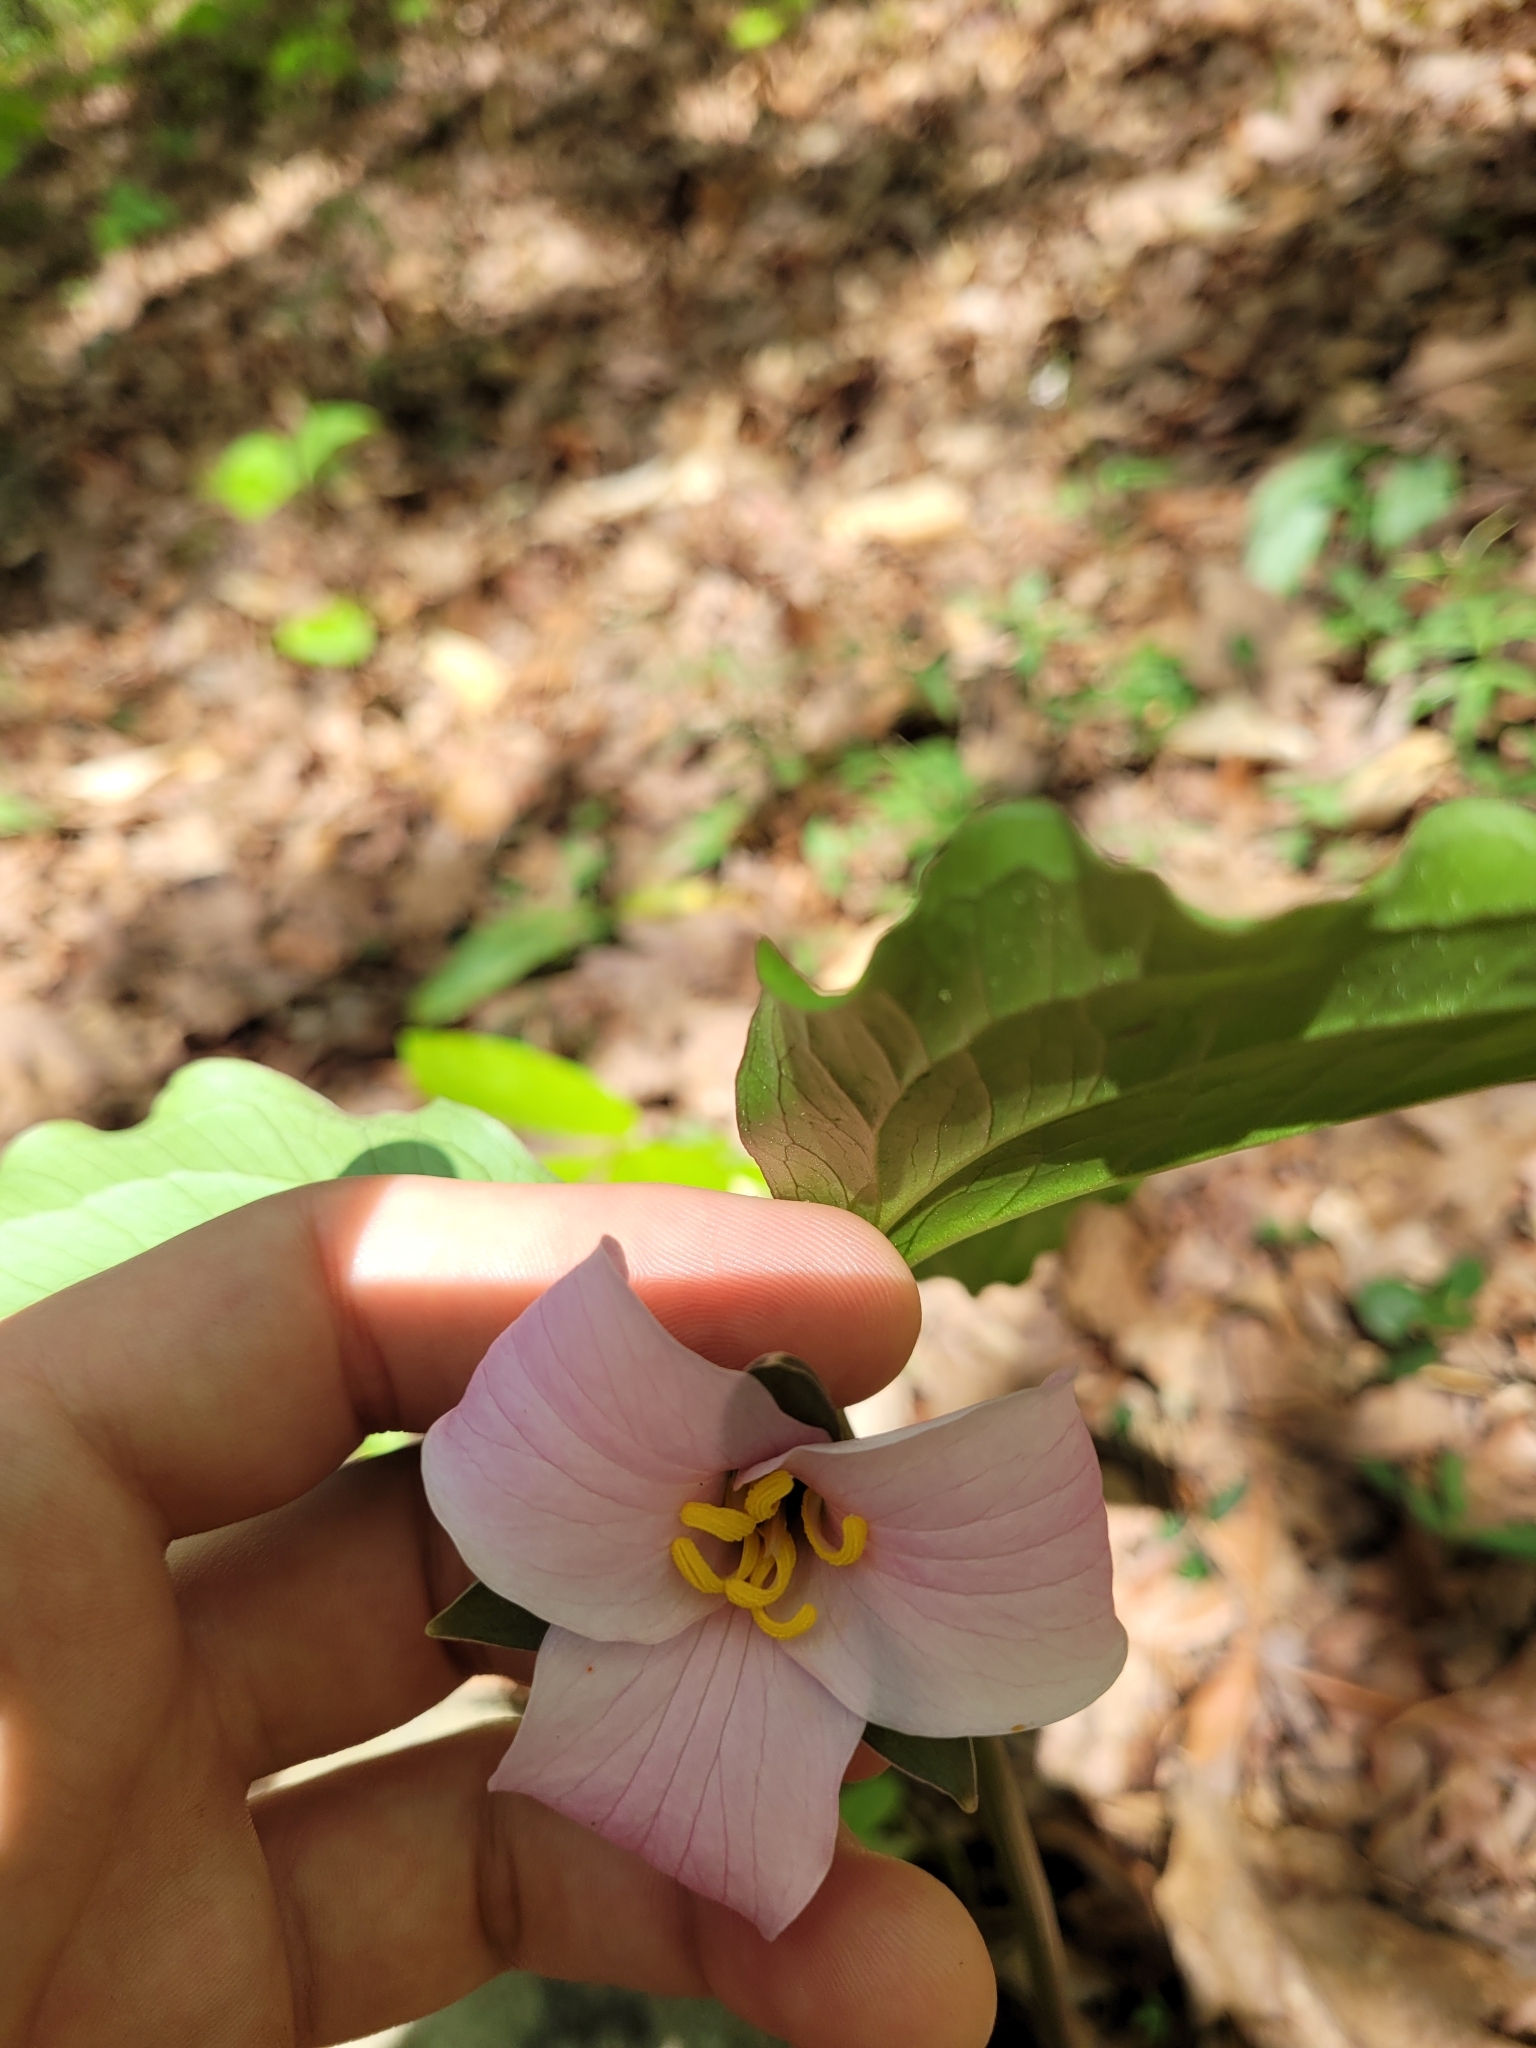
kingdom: Plantae
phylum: Tracheophyta
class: Liliopsida
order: Liliales
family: Melanthiaceae
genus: Trillium
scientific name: Trillium catesbaei
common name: Bashful trillium
